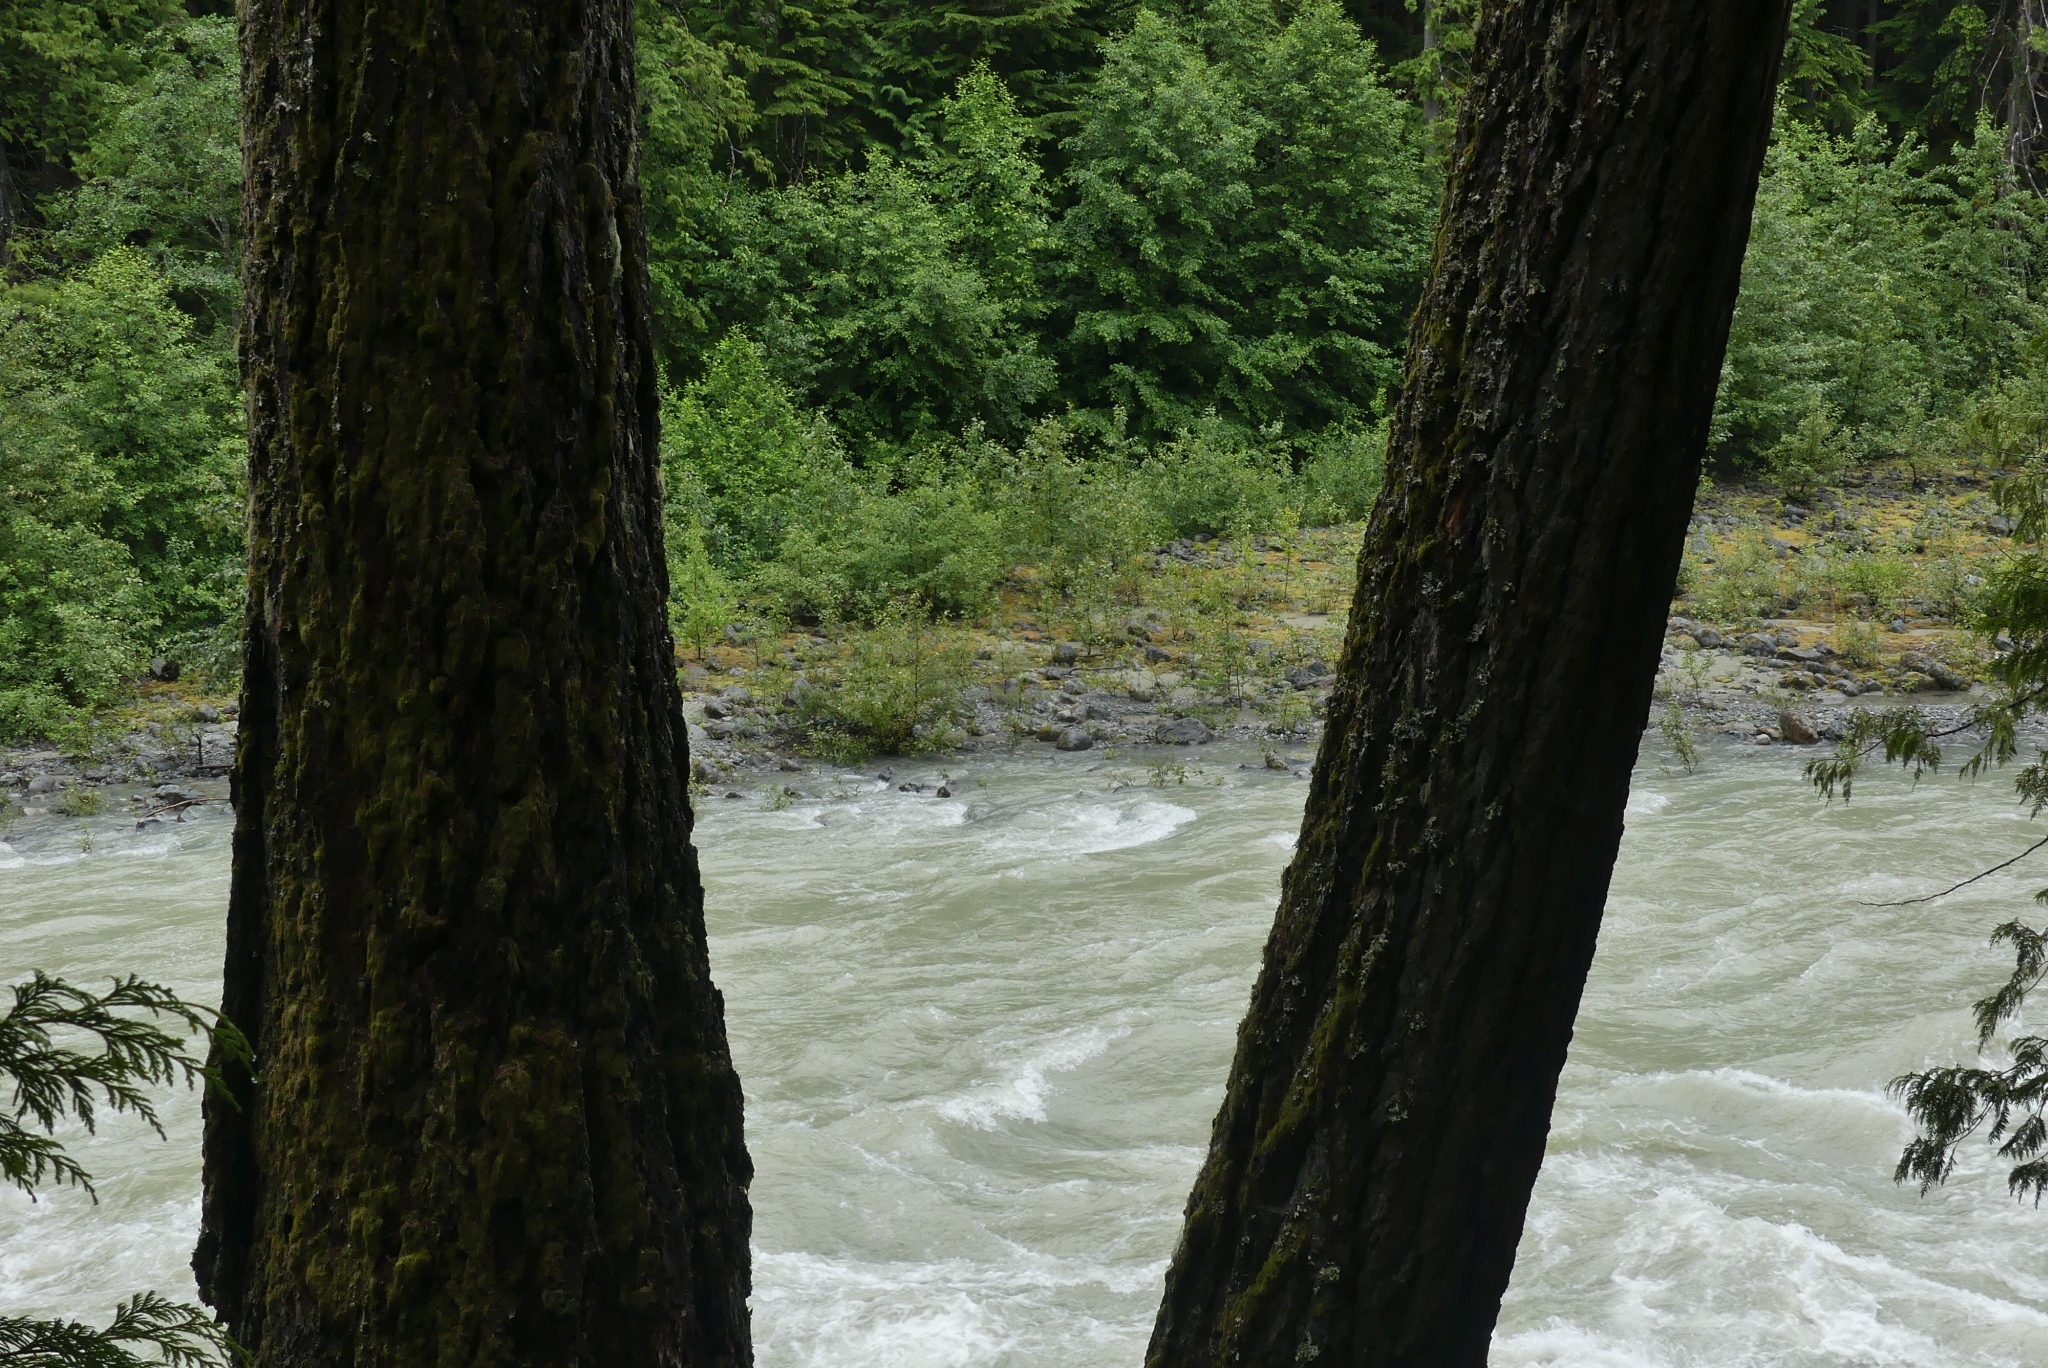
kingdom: Plantae
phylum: Tracheophyta
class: Magnoliopsida
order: Myrtales
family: Onagraceae
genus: Chamaenerion
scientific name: Chamaenerion latifolium
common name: Dwarf fireweed
